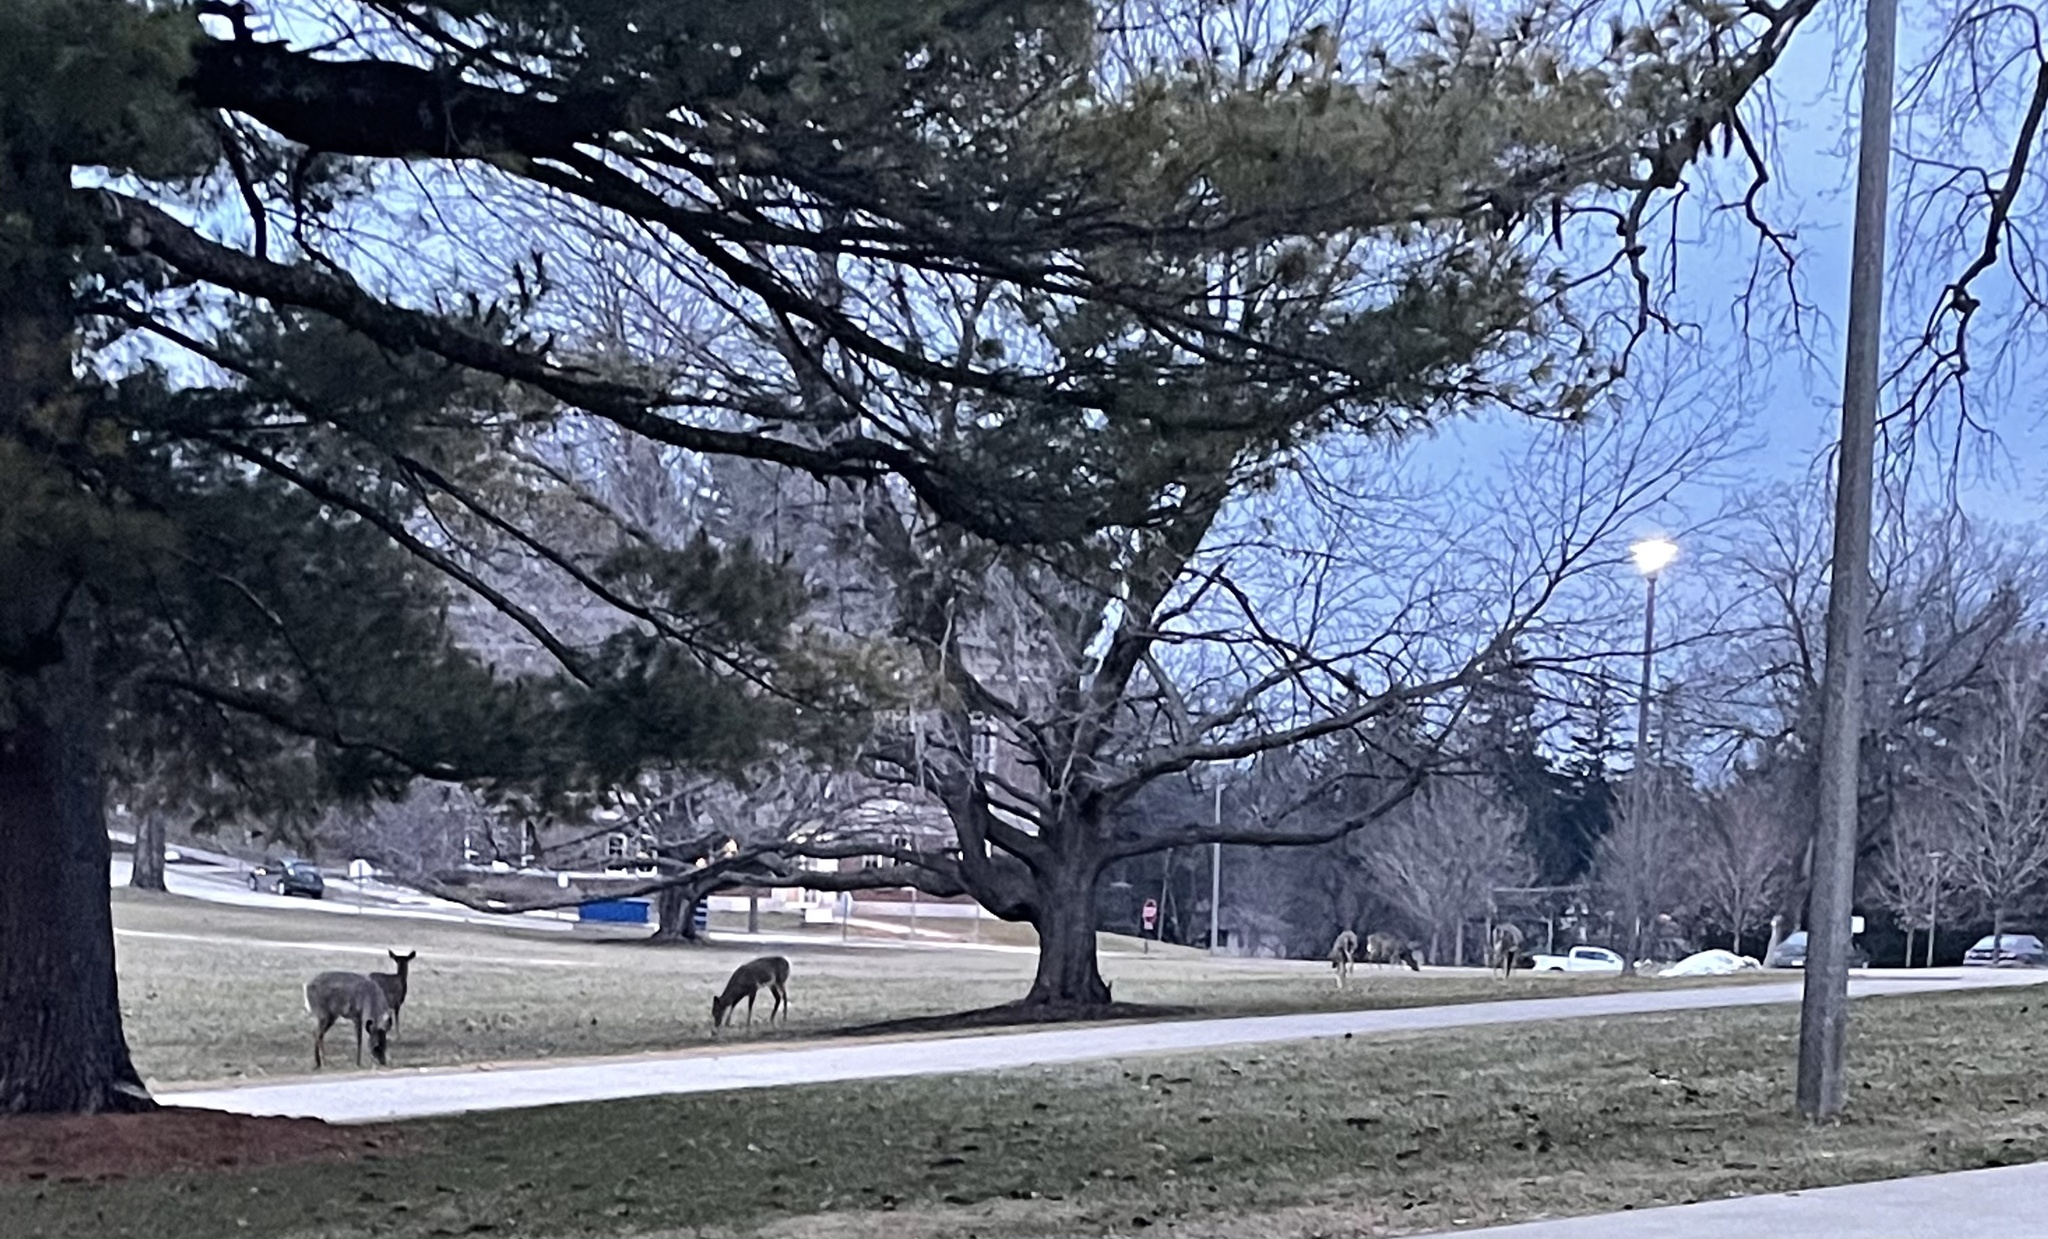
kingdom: Animalia
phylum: Chordata
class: Mammalia
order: Artiodactyla
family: Cervidae
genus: Odocoileus
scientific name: Odocoileus virginianus
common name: White-tailed deer
